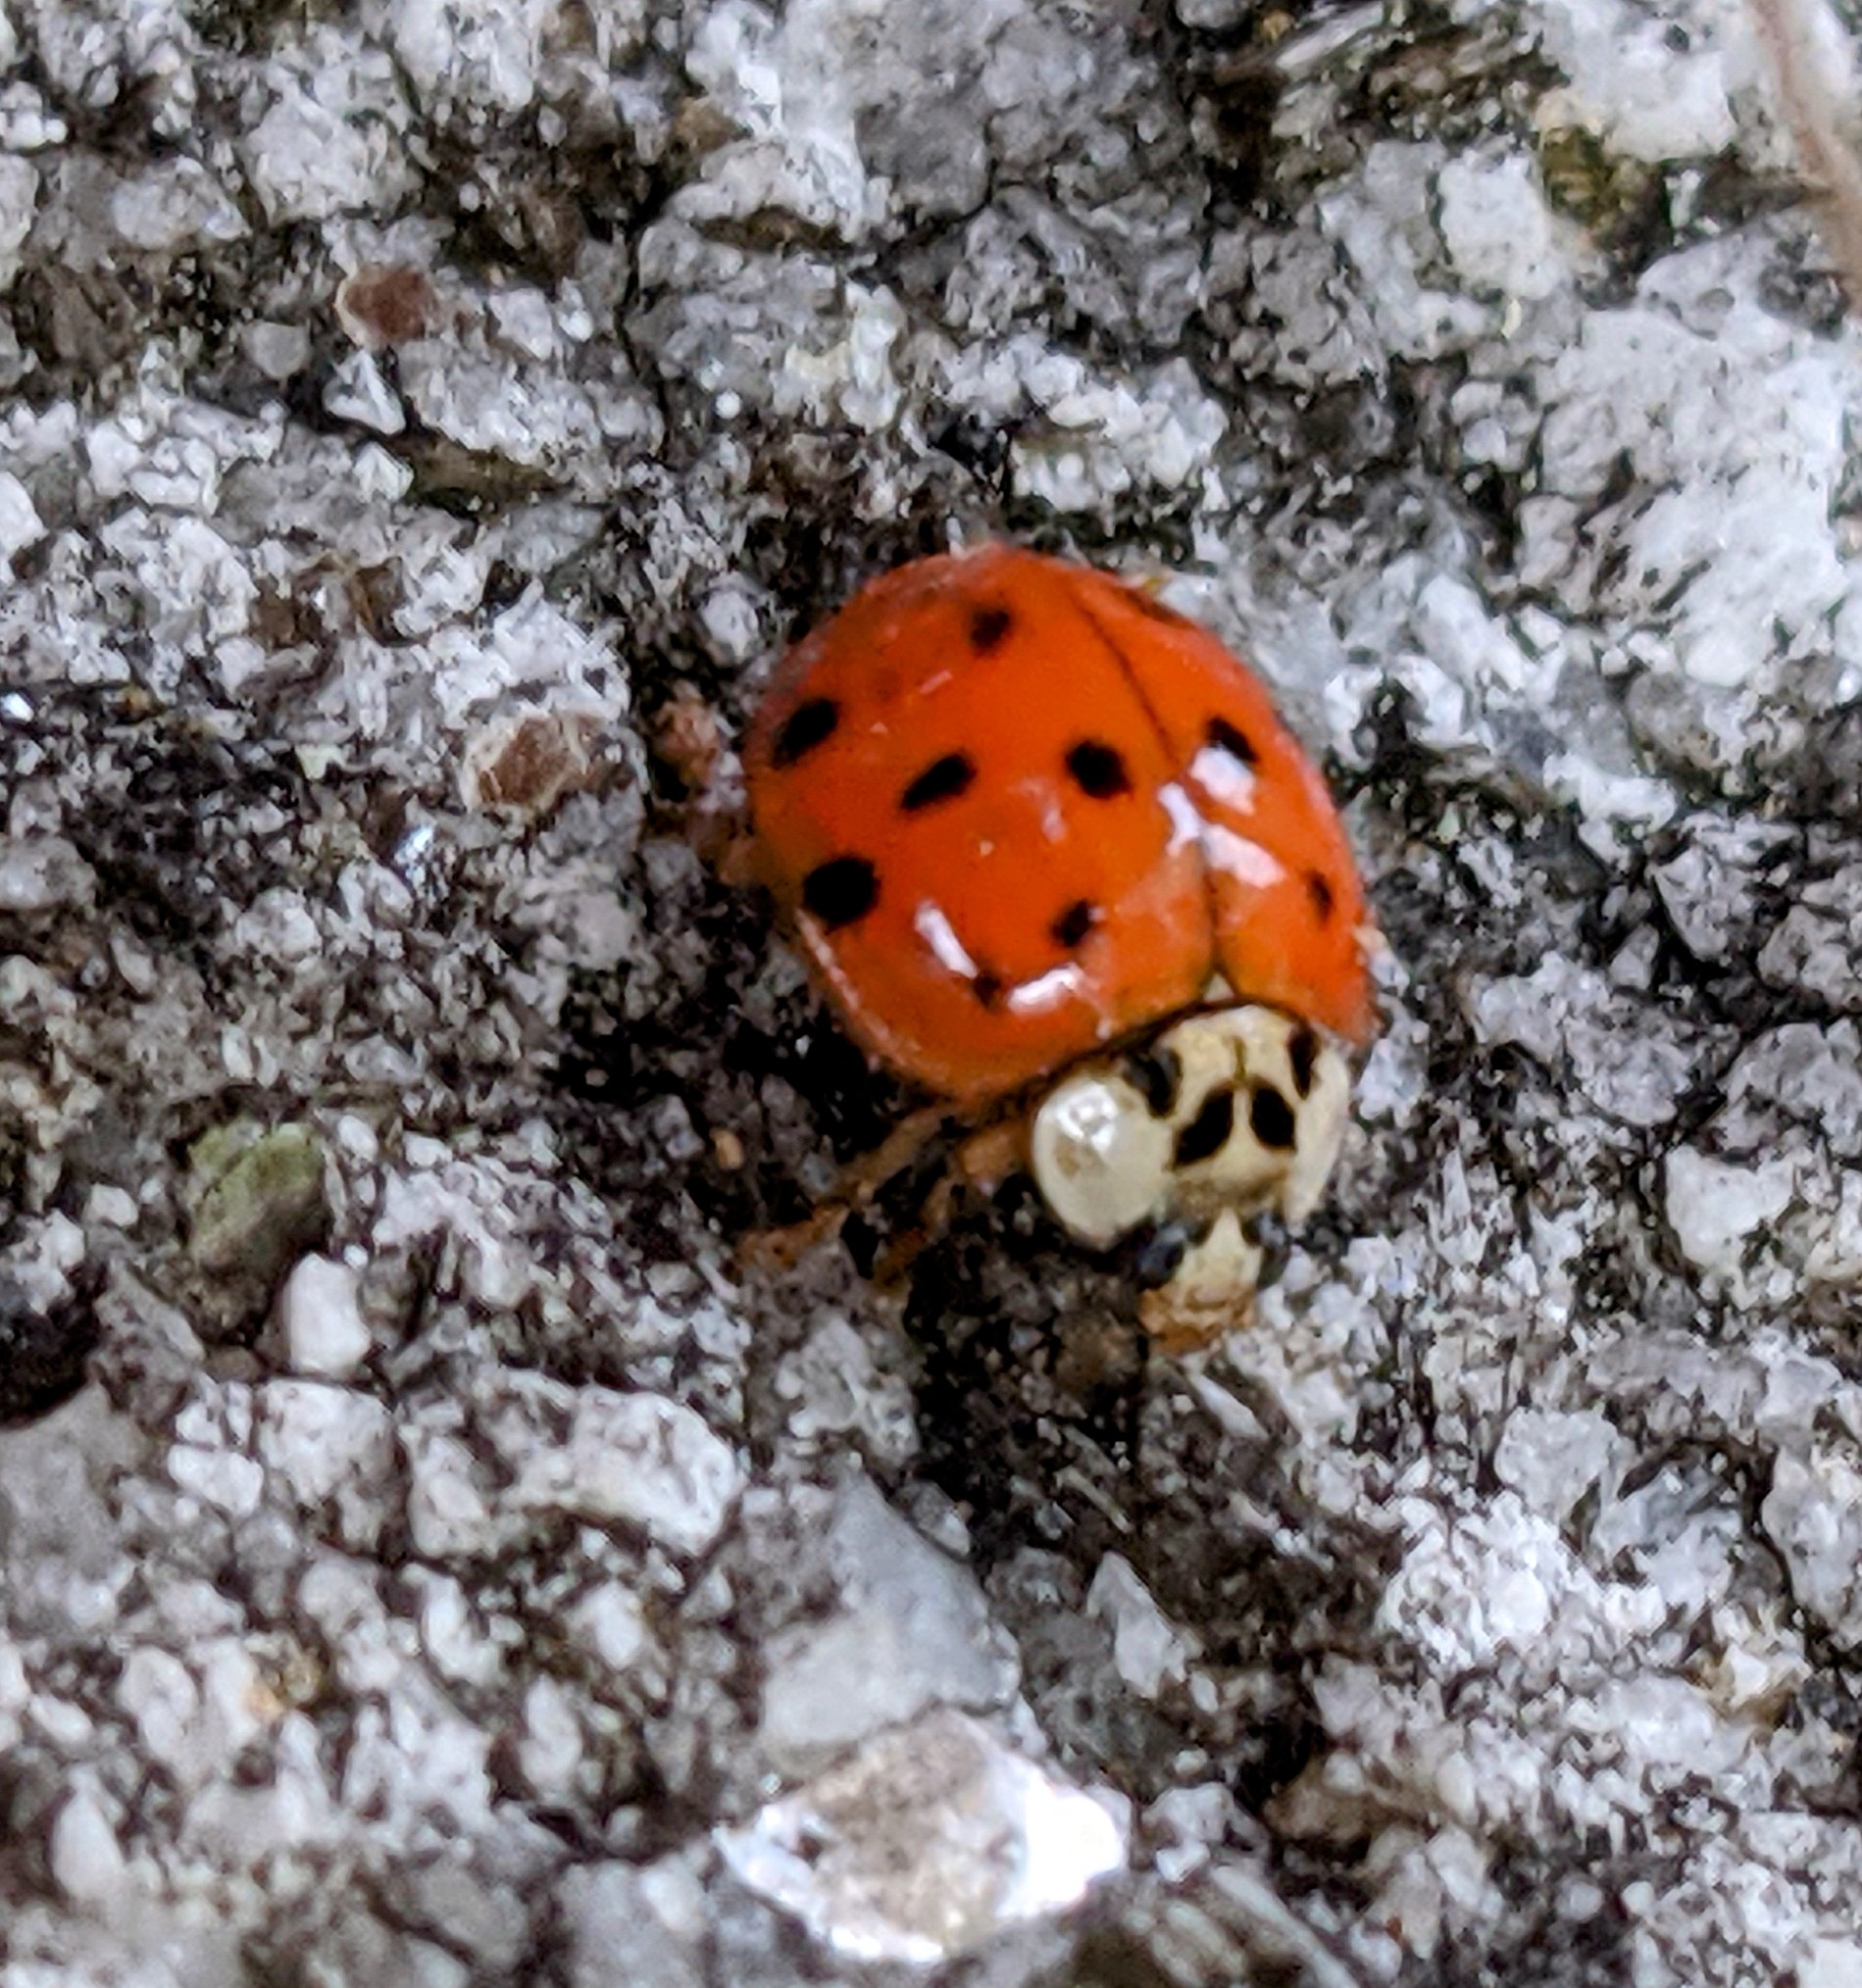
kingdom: Animalia
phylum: Arthropoda
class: Insecta
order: Coleoptera
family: Coccinellidae
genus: Harmonia
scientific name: Harmonia axyridis
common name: Harlequin ladybird
